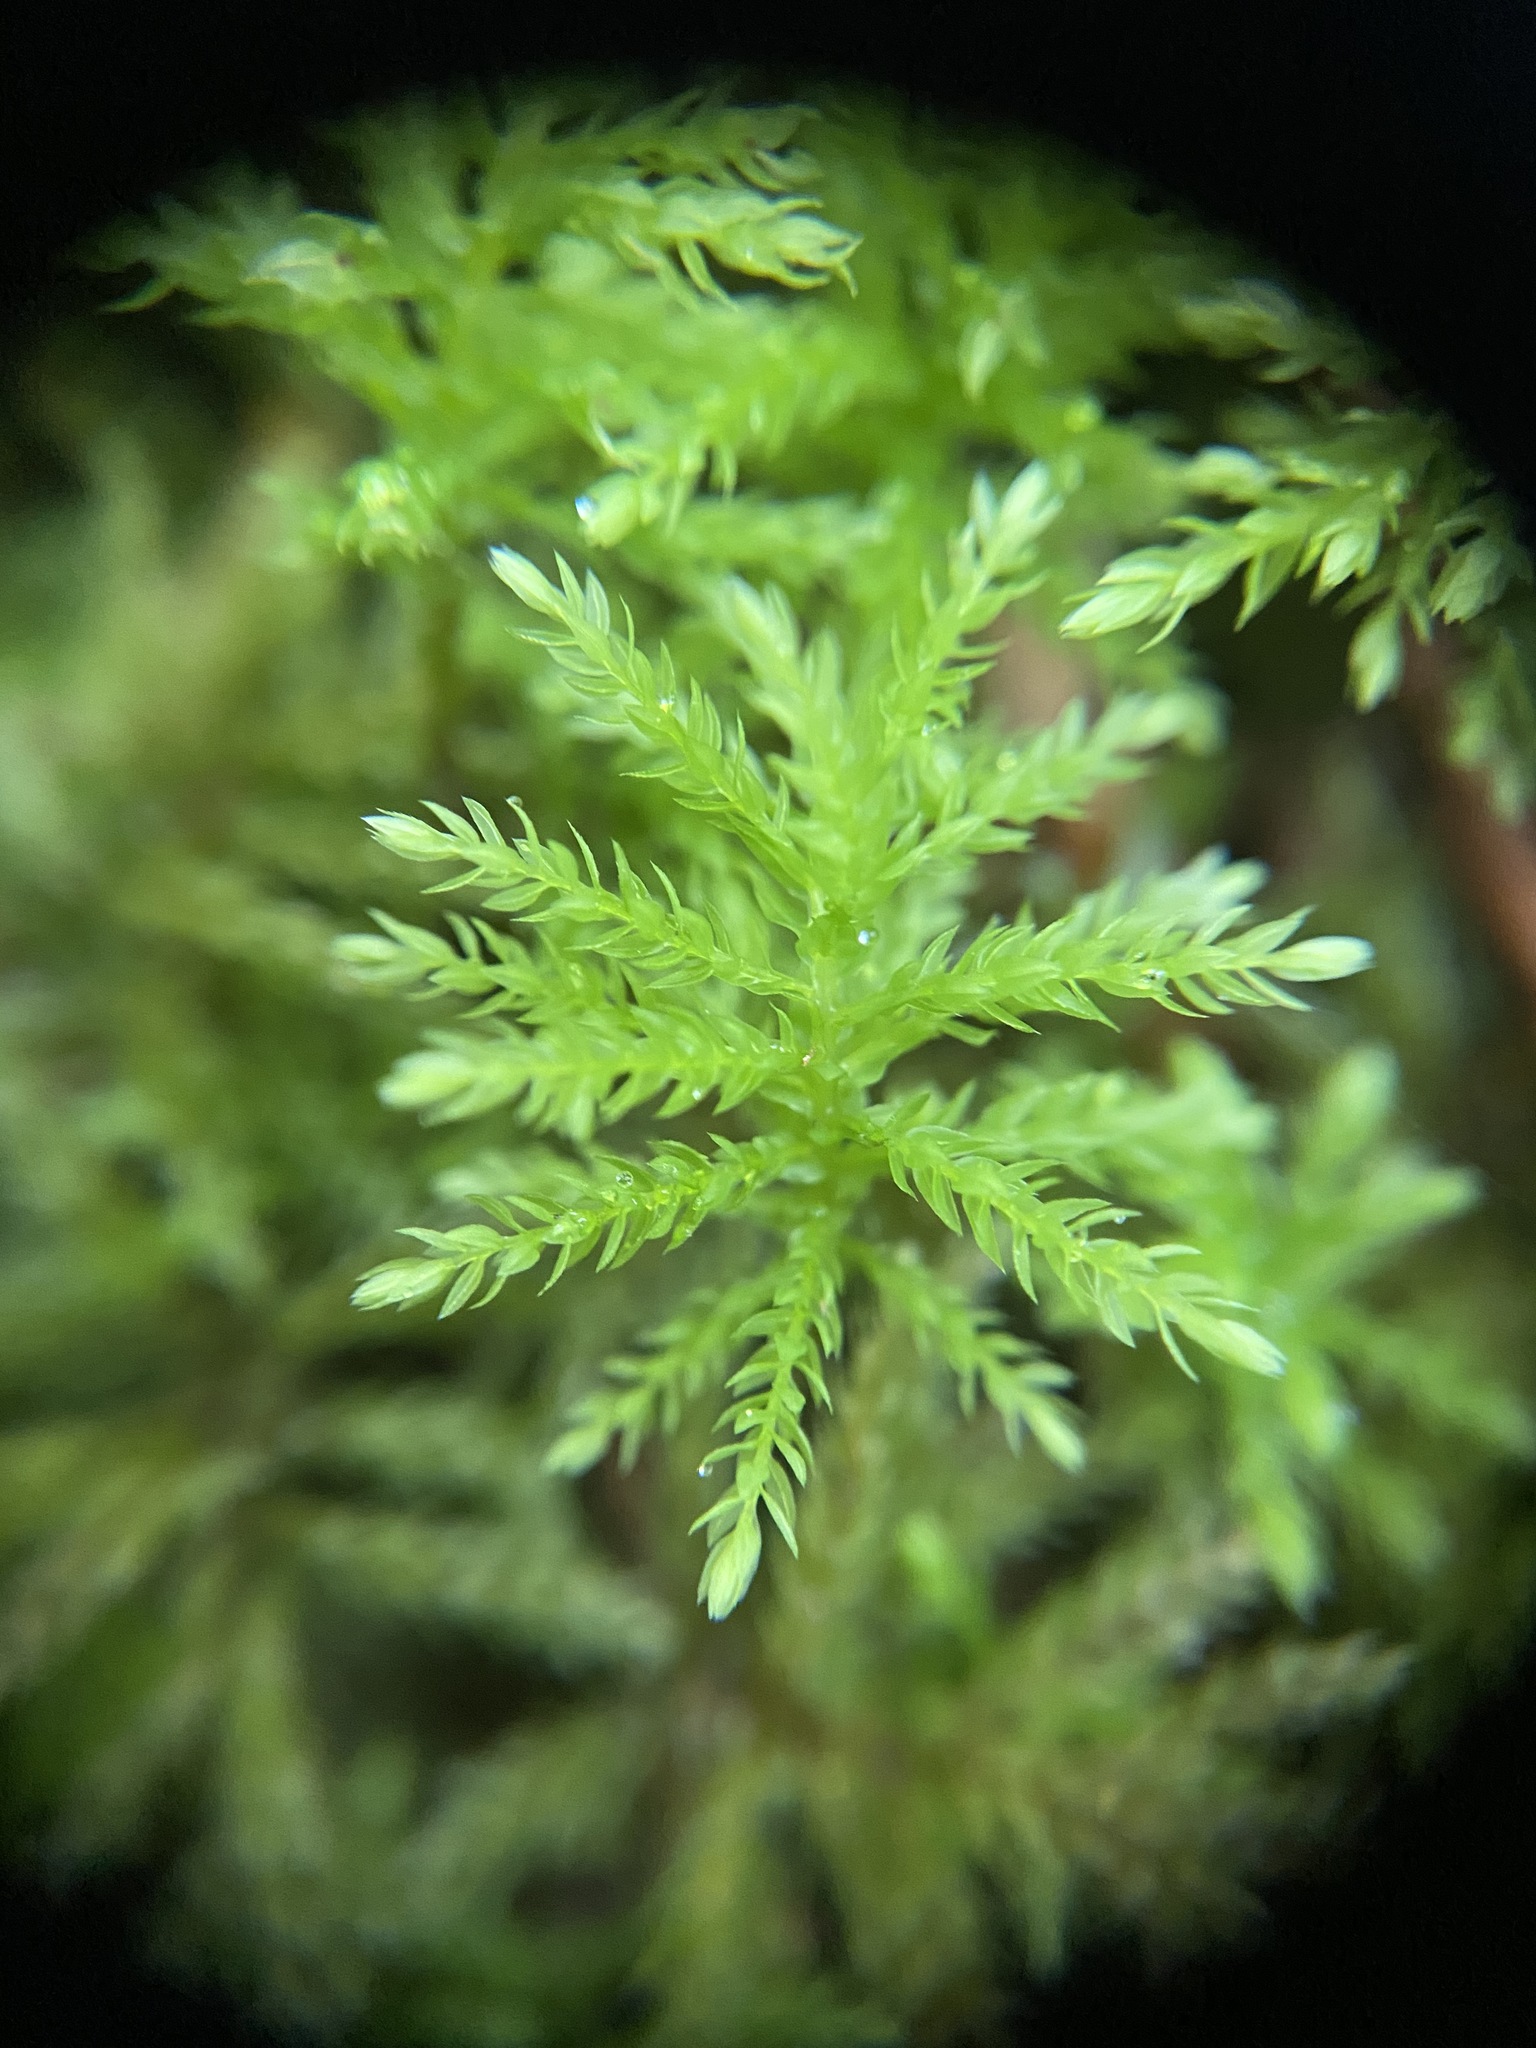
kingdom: Plantae
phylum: Bryophyta
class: Bryopsida
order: Bryales
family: Mniaceae
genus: Leucolepis
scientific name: Leucolepis acanthoneura
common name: Leucolepis umbrella moss
